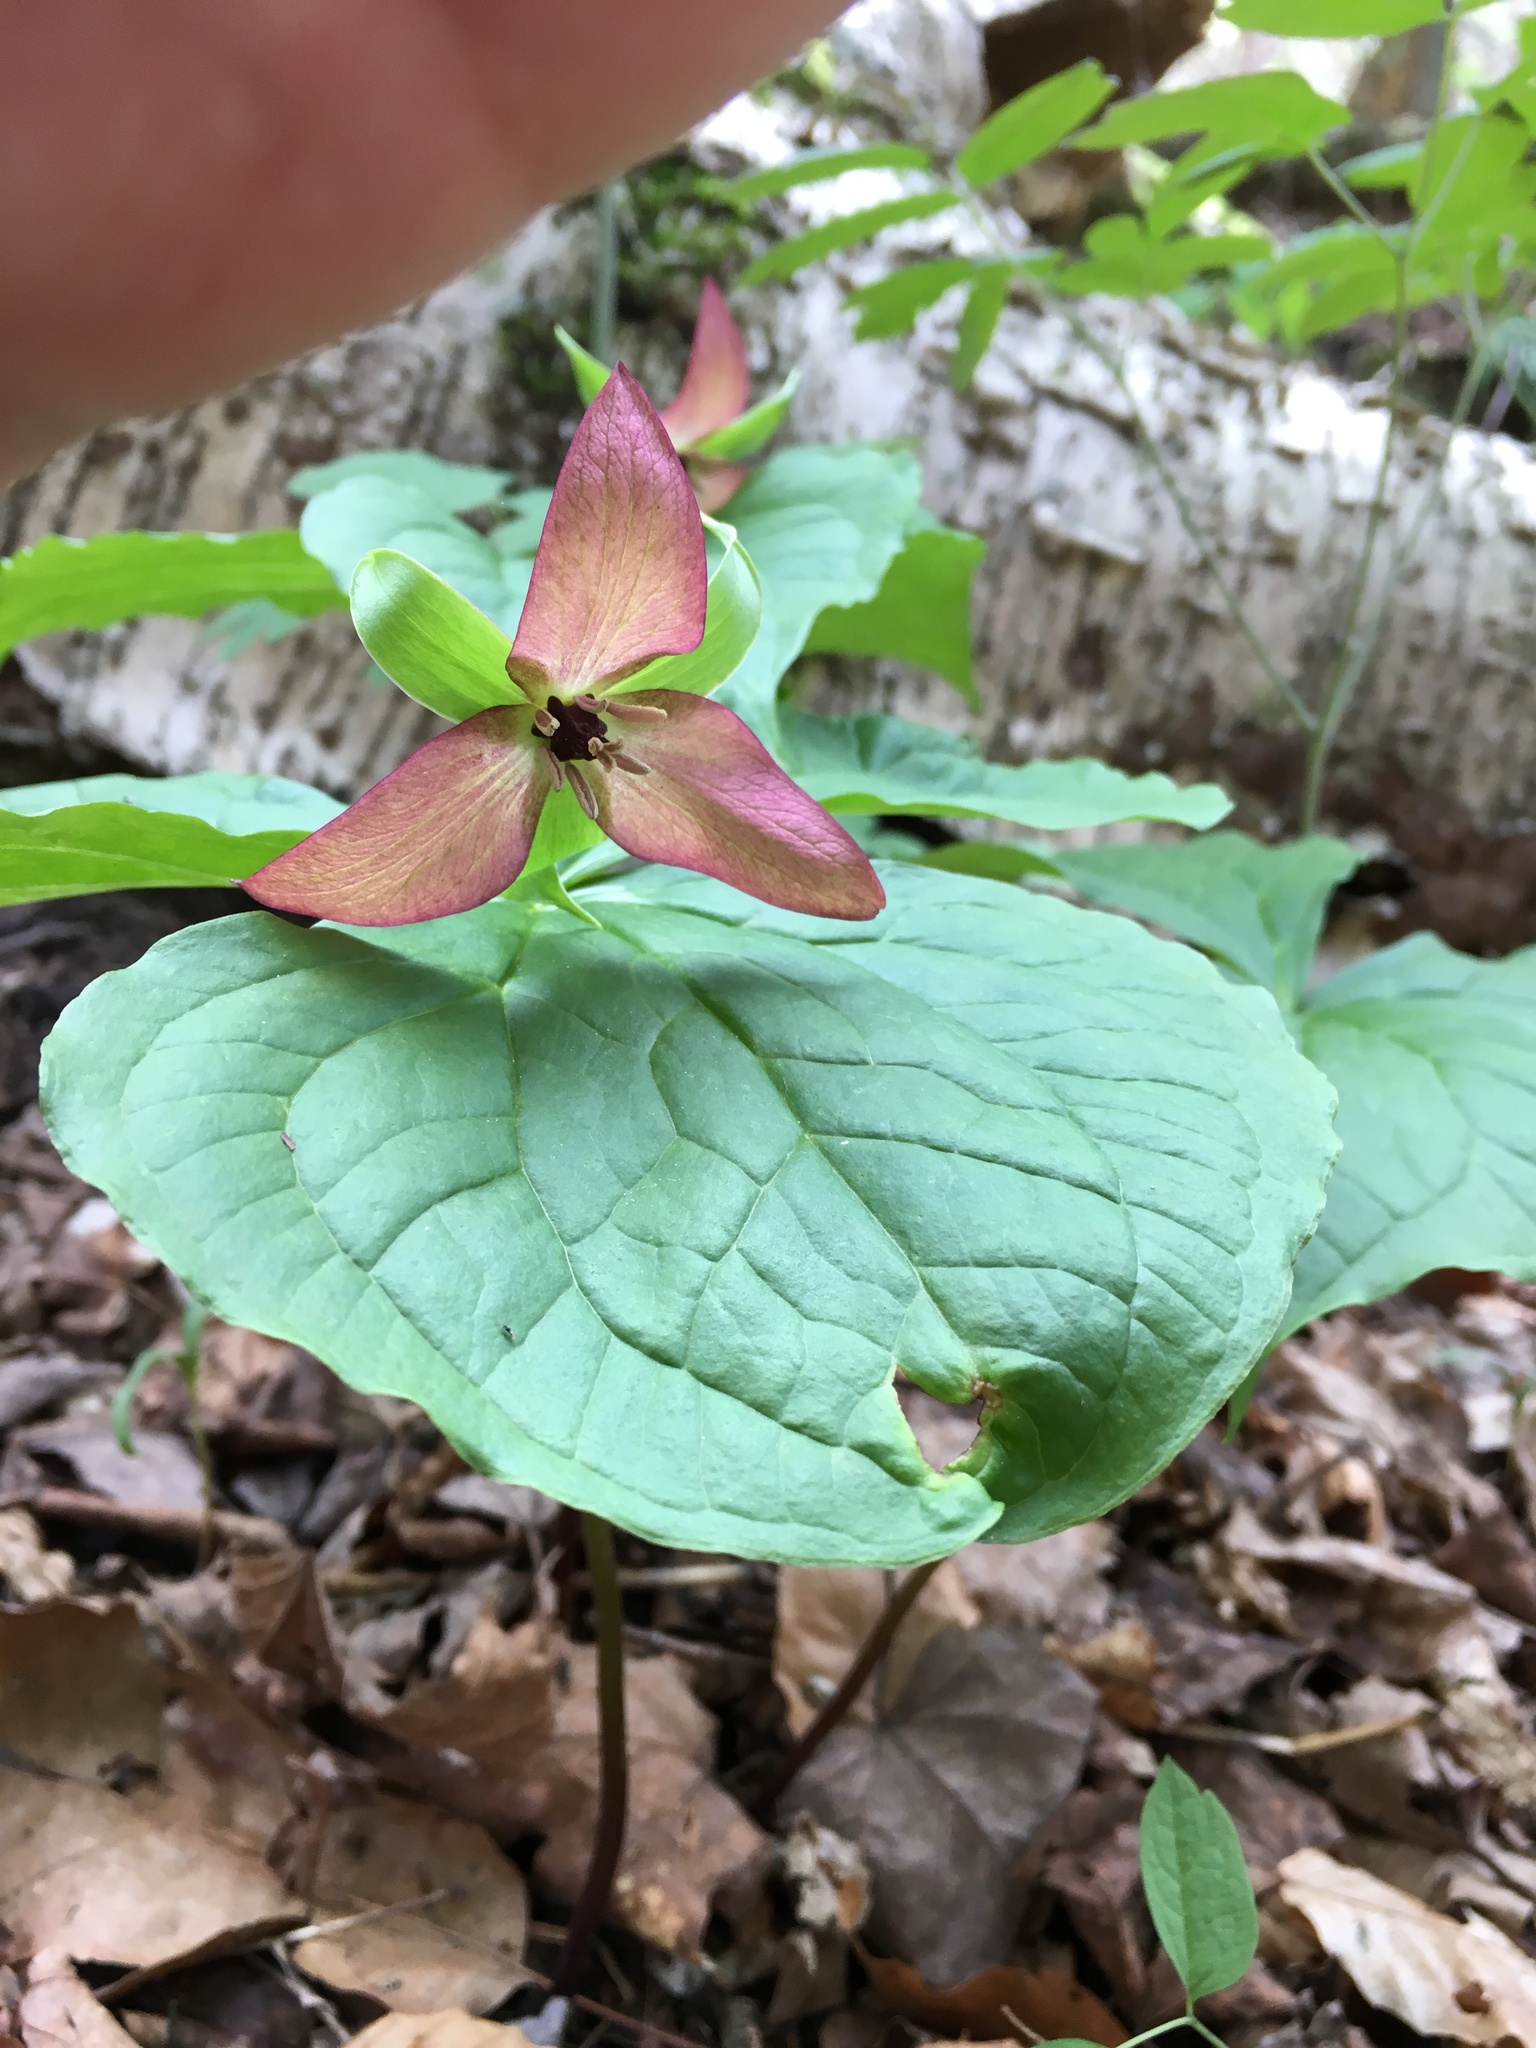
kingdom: Plantae
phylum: Tracheophyta
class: Liliopsida
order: Liliales
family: Melanthiaceae
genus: Trillium
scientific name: Trillium erectum
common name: Purple trillium
